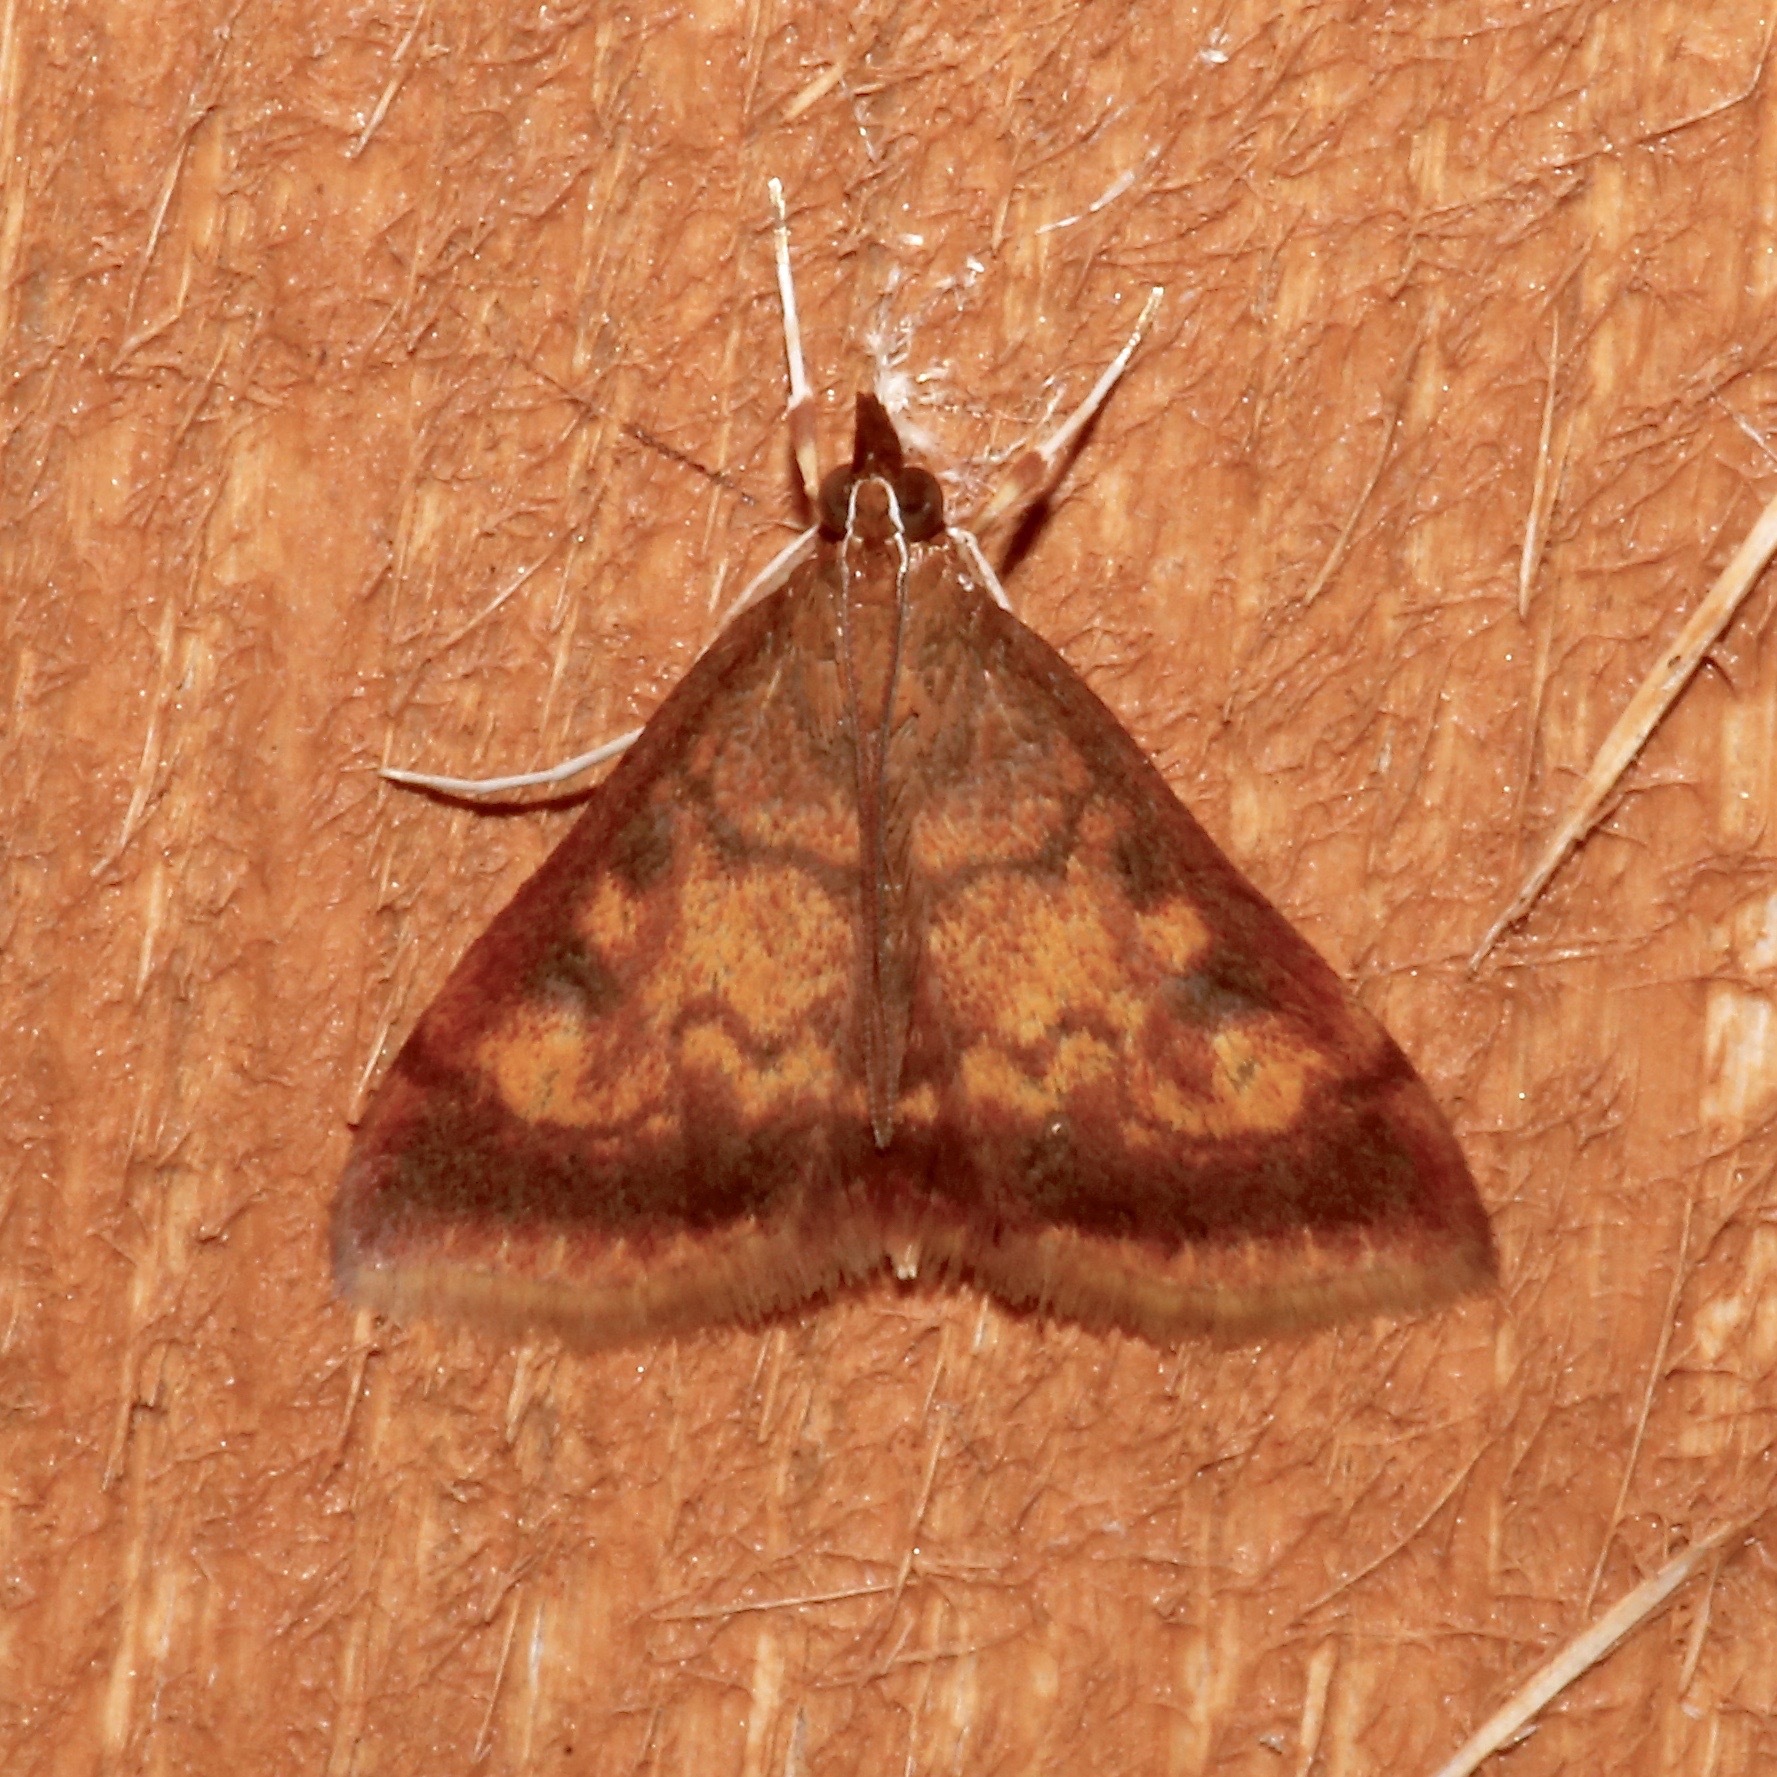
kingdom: Animalia
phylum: Arthropoda
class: Insecta
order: Lepidoptera
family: Crambidae
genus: Pyrausta
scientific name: Pyrausta acrionalis
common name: Mint-loving pyrausta moth
